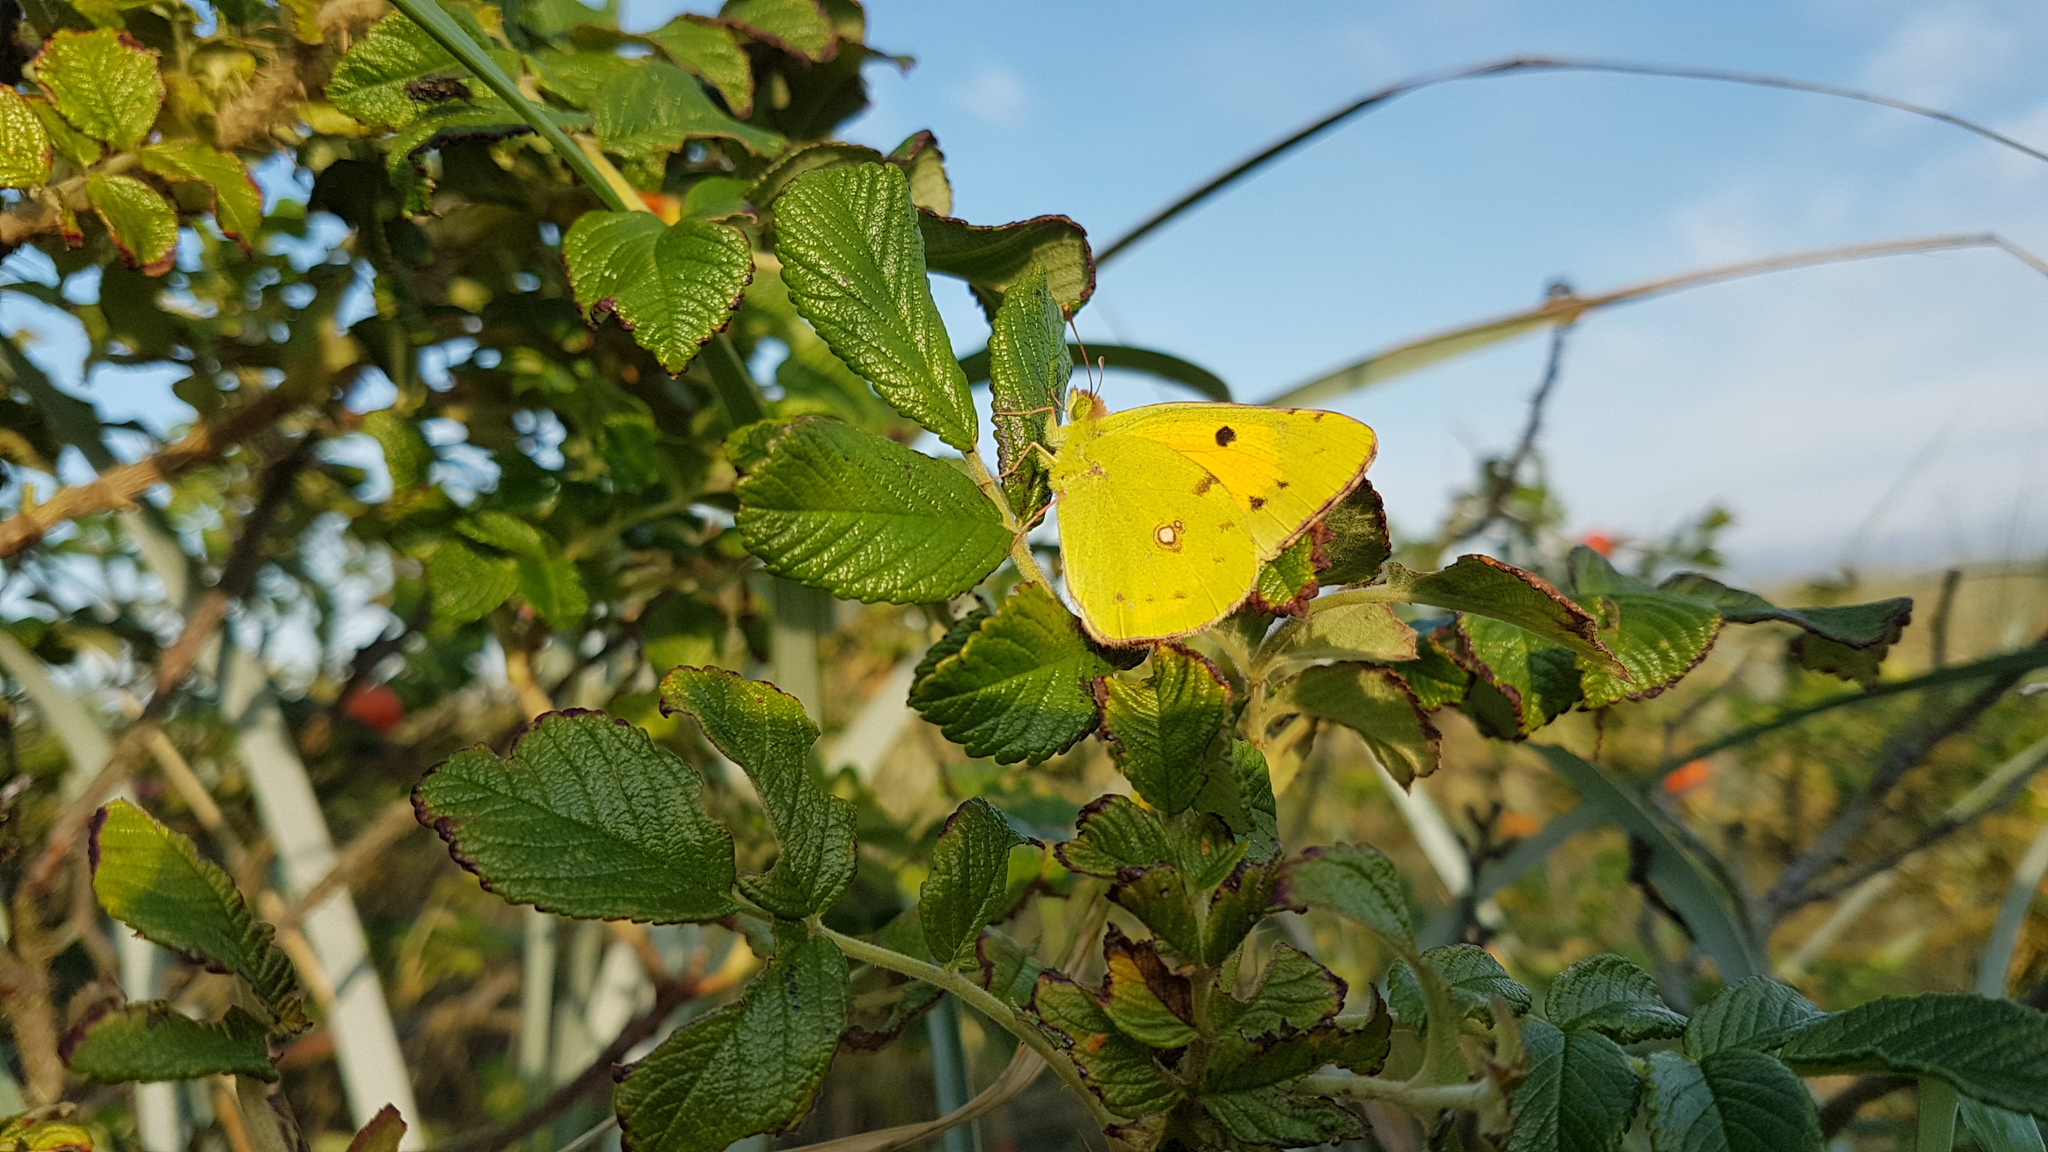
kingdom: Animalia
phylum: Arthropoda
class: Insecta
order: Lepidoptera
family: Pieridae
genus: Colias
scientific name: Colias croceus
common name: Clouded yellow
